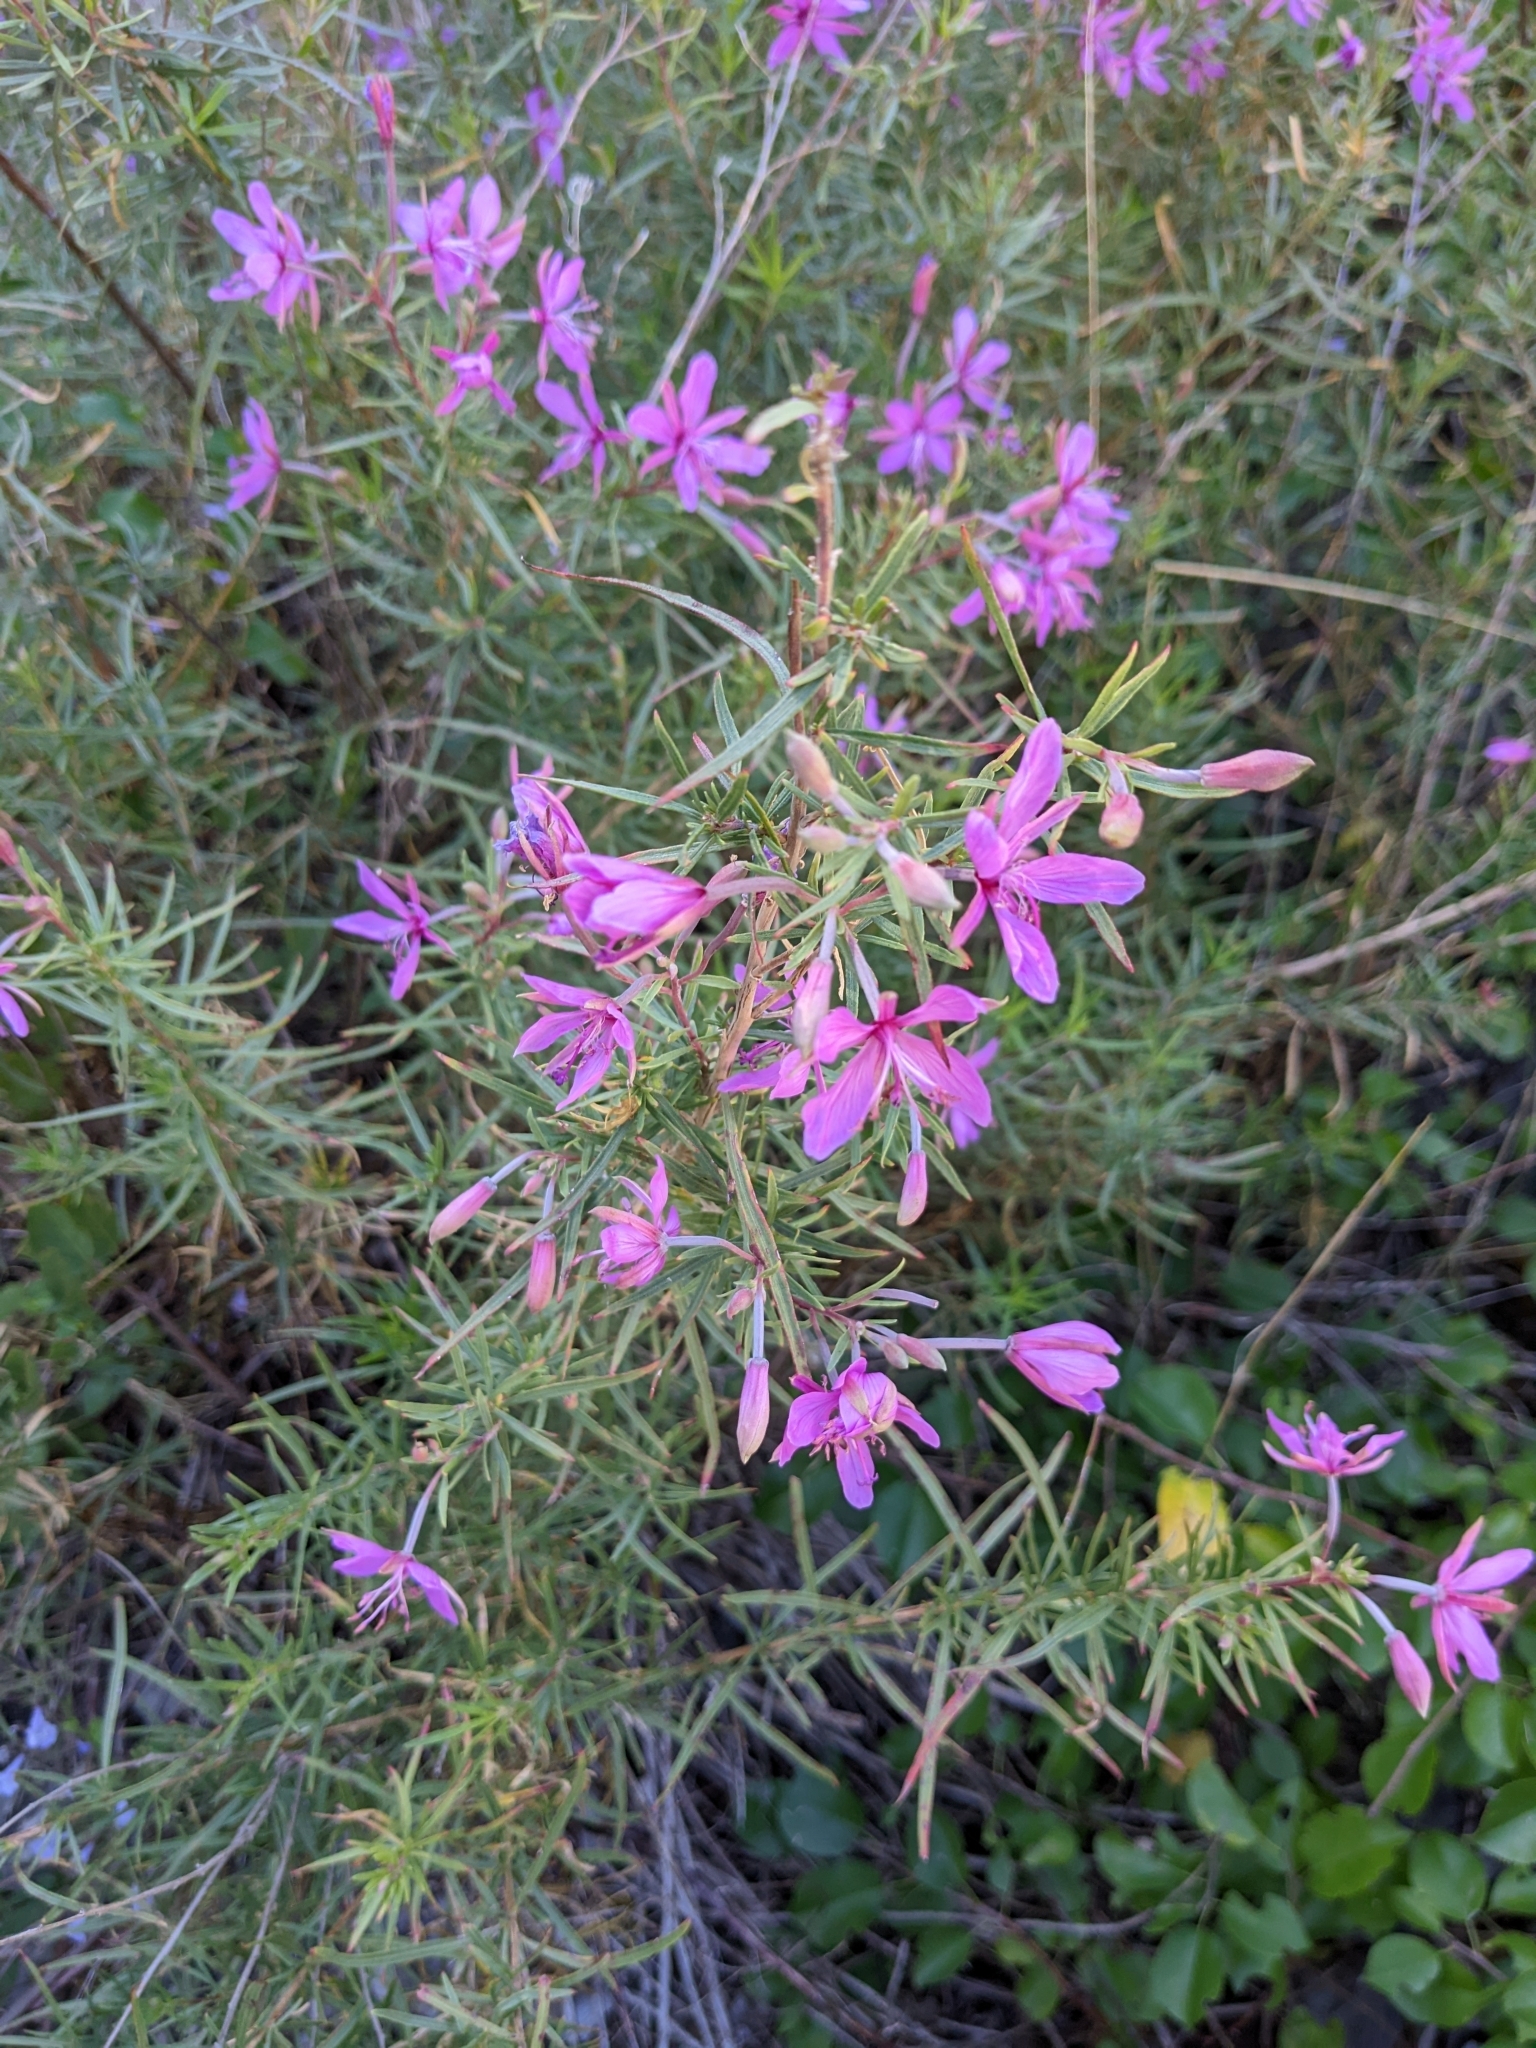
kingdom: Plantae
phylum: Tracheophyta
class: Magnoliopsida
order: Myrtales
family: Onagraceae
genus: Chamaenerion
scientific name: Chamaenerion dodonaei
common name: Rosemary-leaved willowherb
